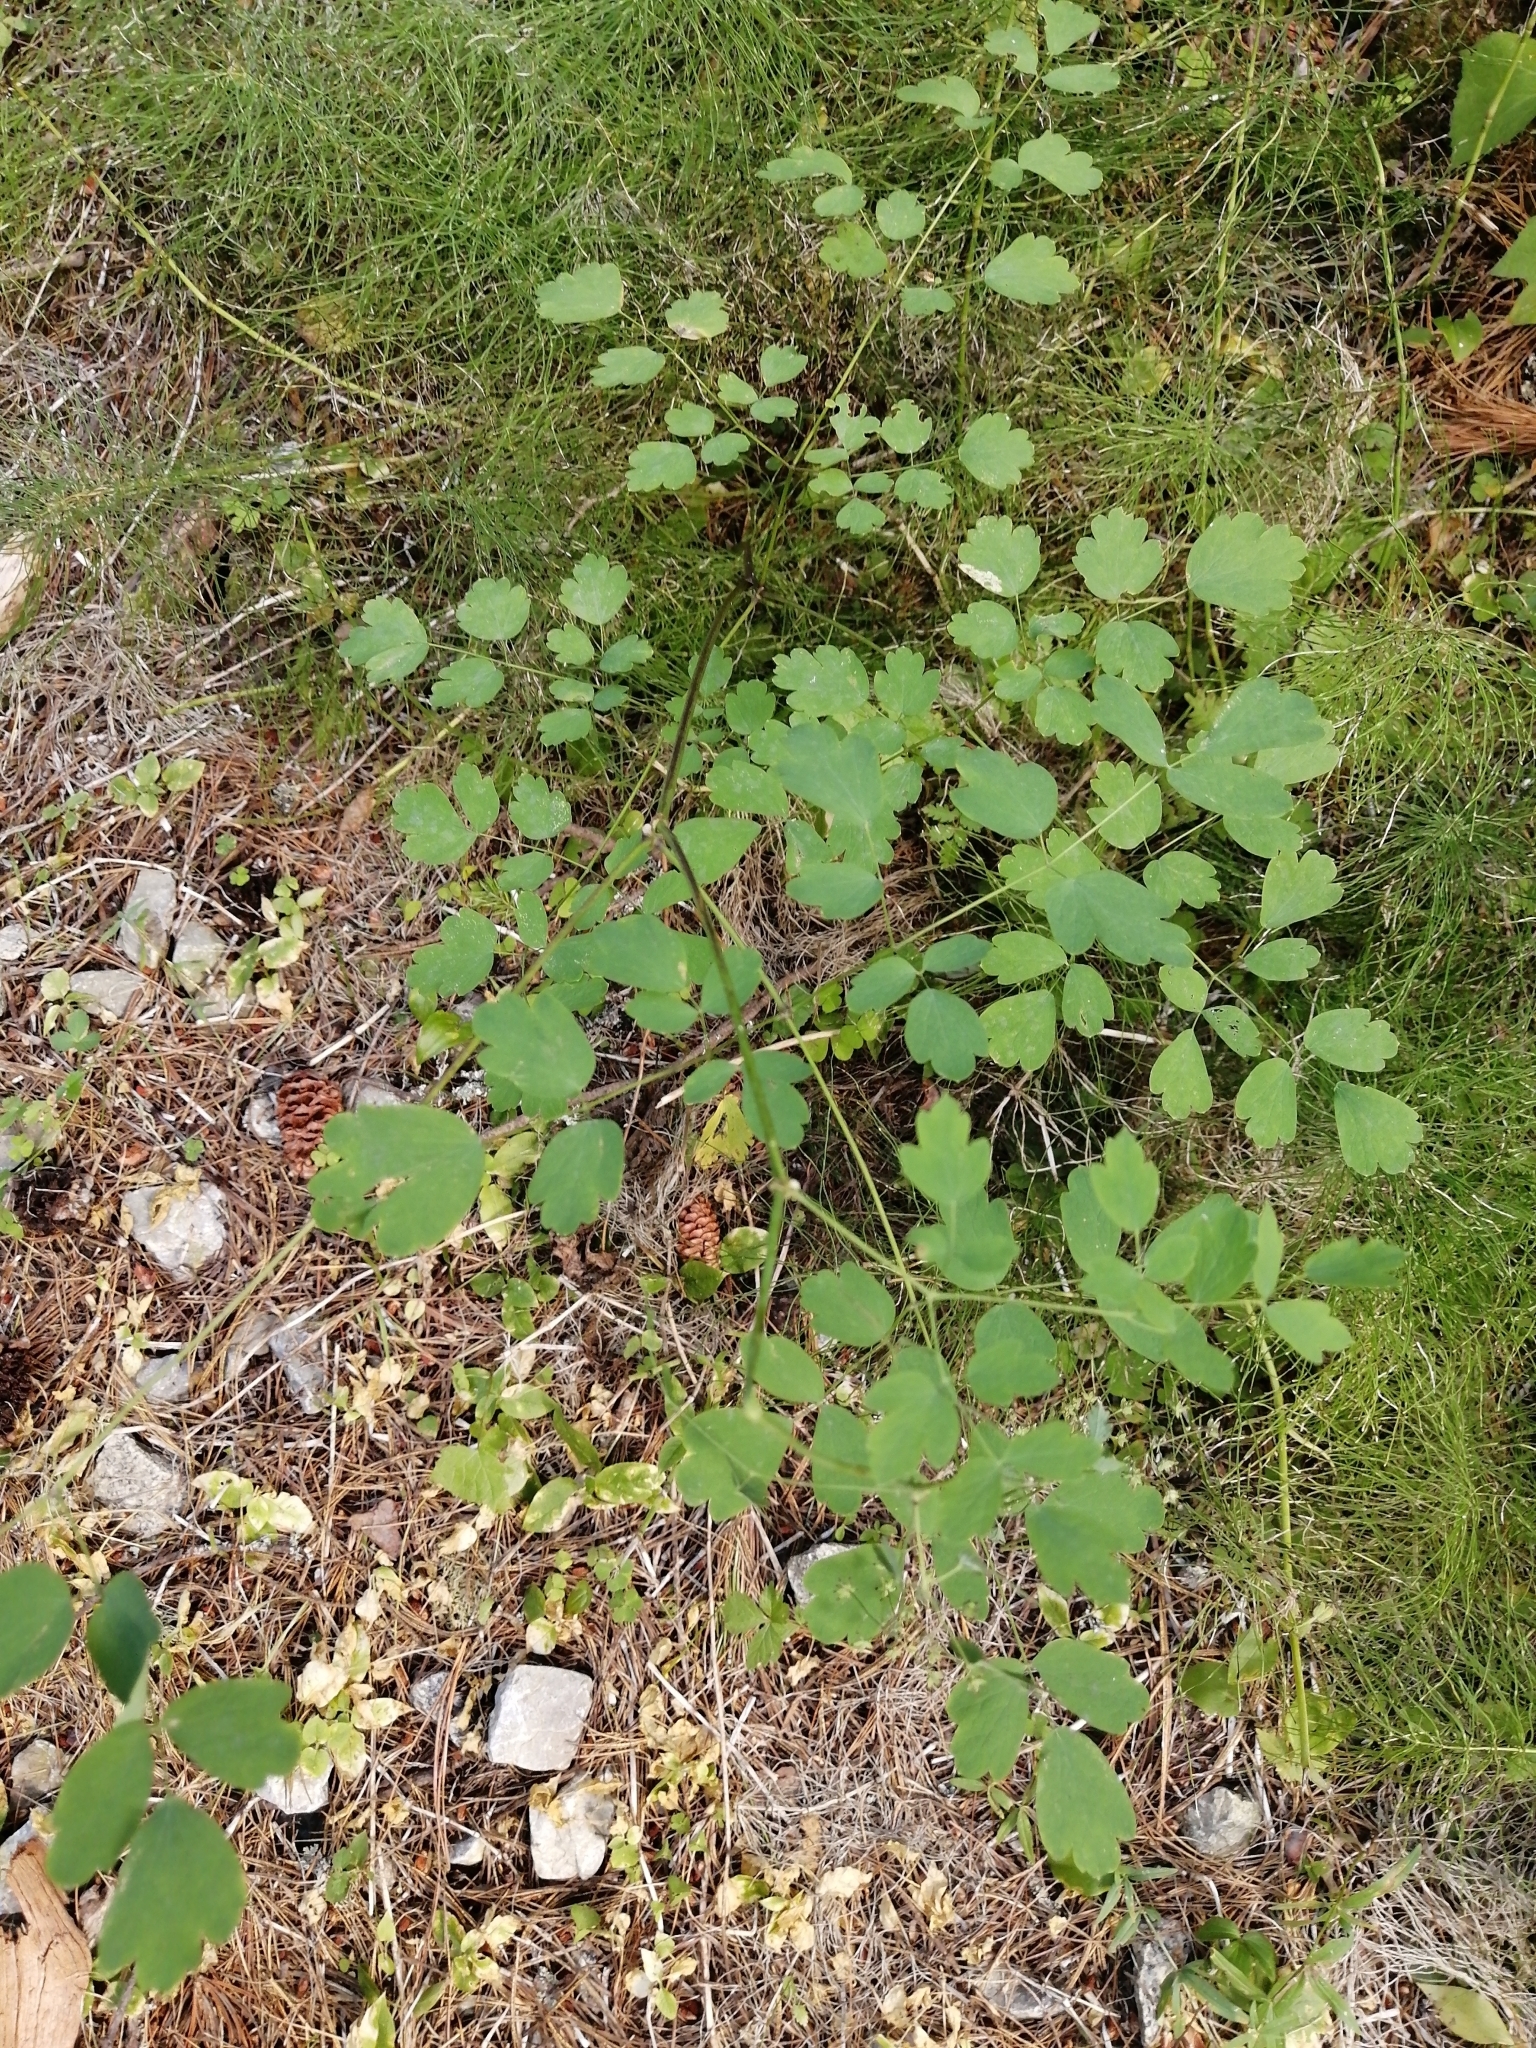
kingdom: Plantae
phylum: Tracheophyta
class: Magnoliopsida
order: Ranunculales
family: Ranunculaceae
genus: Thalictrum
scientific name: Thalictrum minus
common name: Lesser meadow-rue
